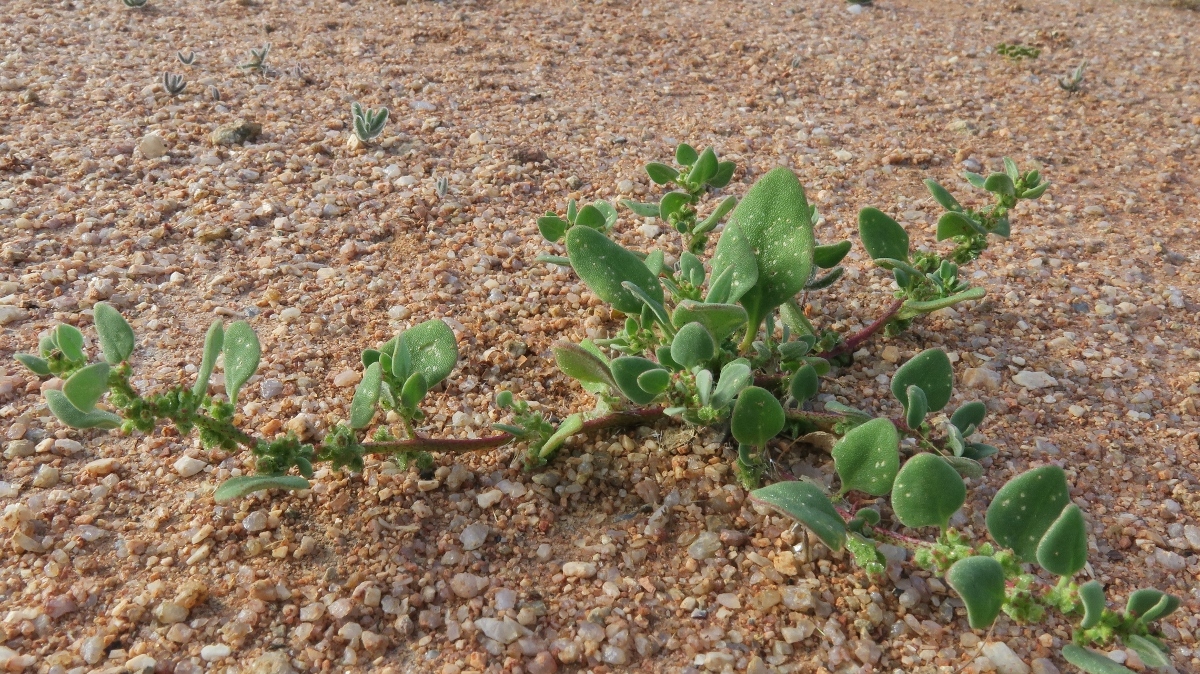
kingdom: Plantae
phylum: Tracheophyta
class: Magnoliopsida
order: Caryophyllales
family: Aizoaceae
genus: Tetragonia
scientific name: Tetragonia echinata
